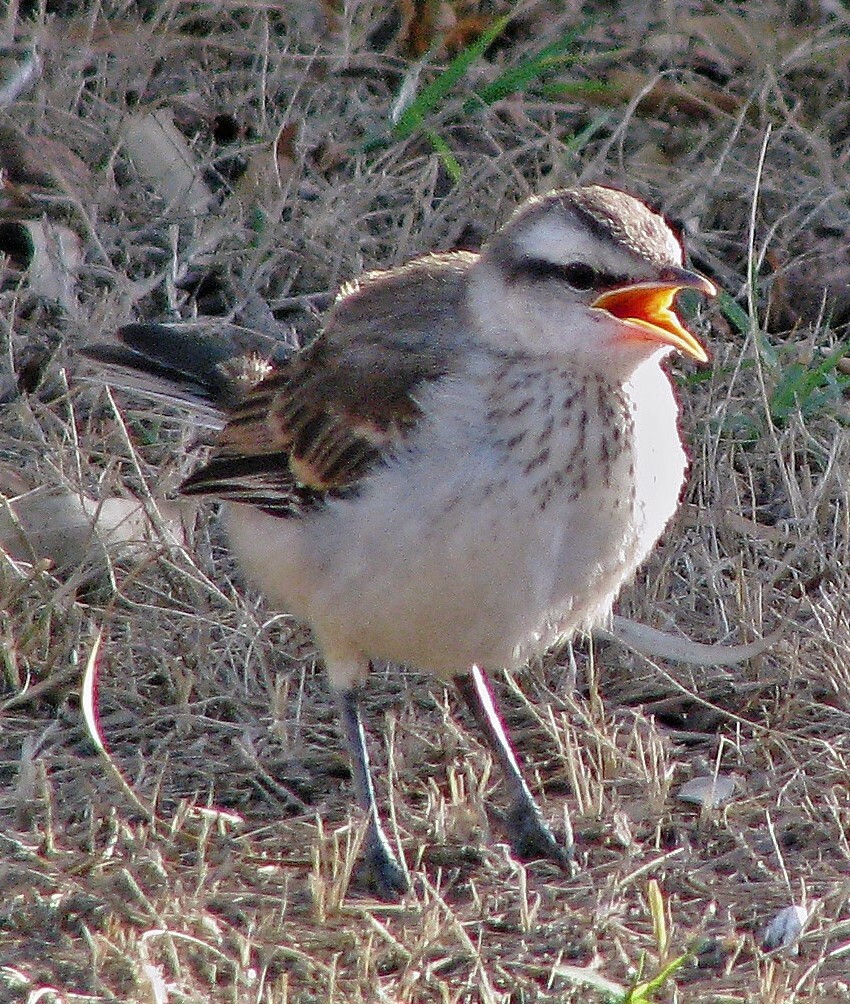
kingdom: Animalia
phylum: Chordata
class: Aves
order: Passeriformes
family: Mimidae
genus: Mimus
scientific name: Mimus saturninus
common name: Chalk-browed mockingbird
